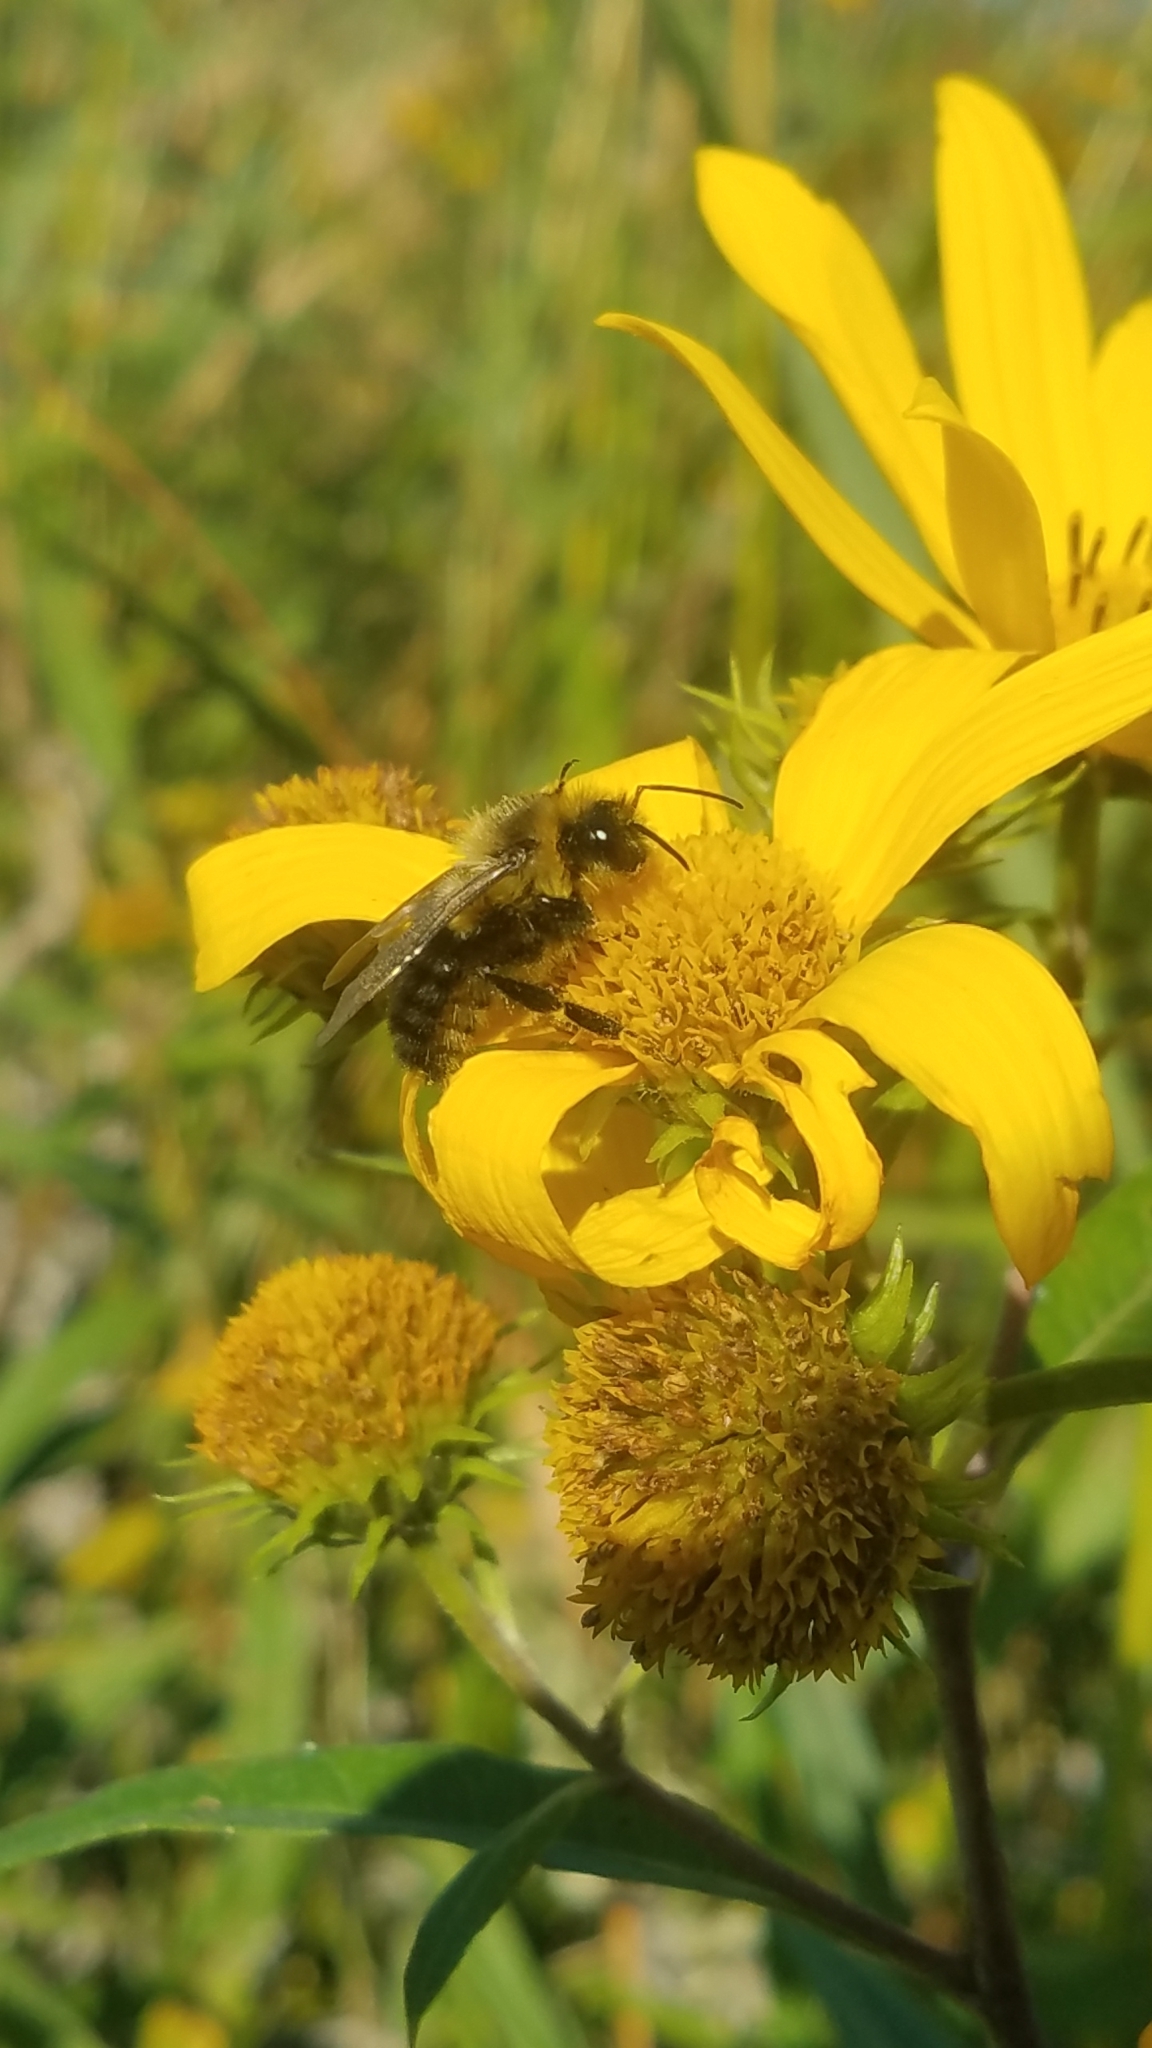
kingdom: Animalia
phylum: Arthropoda
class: Insecta
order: Hymenoptera
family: Apidae
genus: Bombus
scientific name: Bombus impatiens
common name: Common eastern bumble bee
